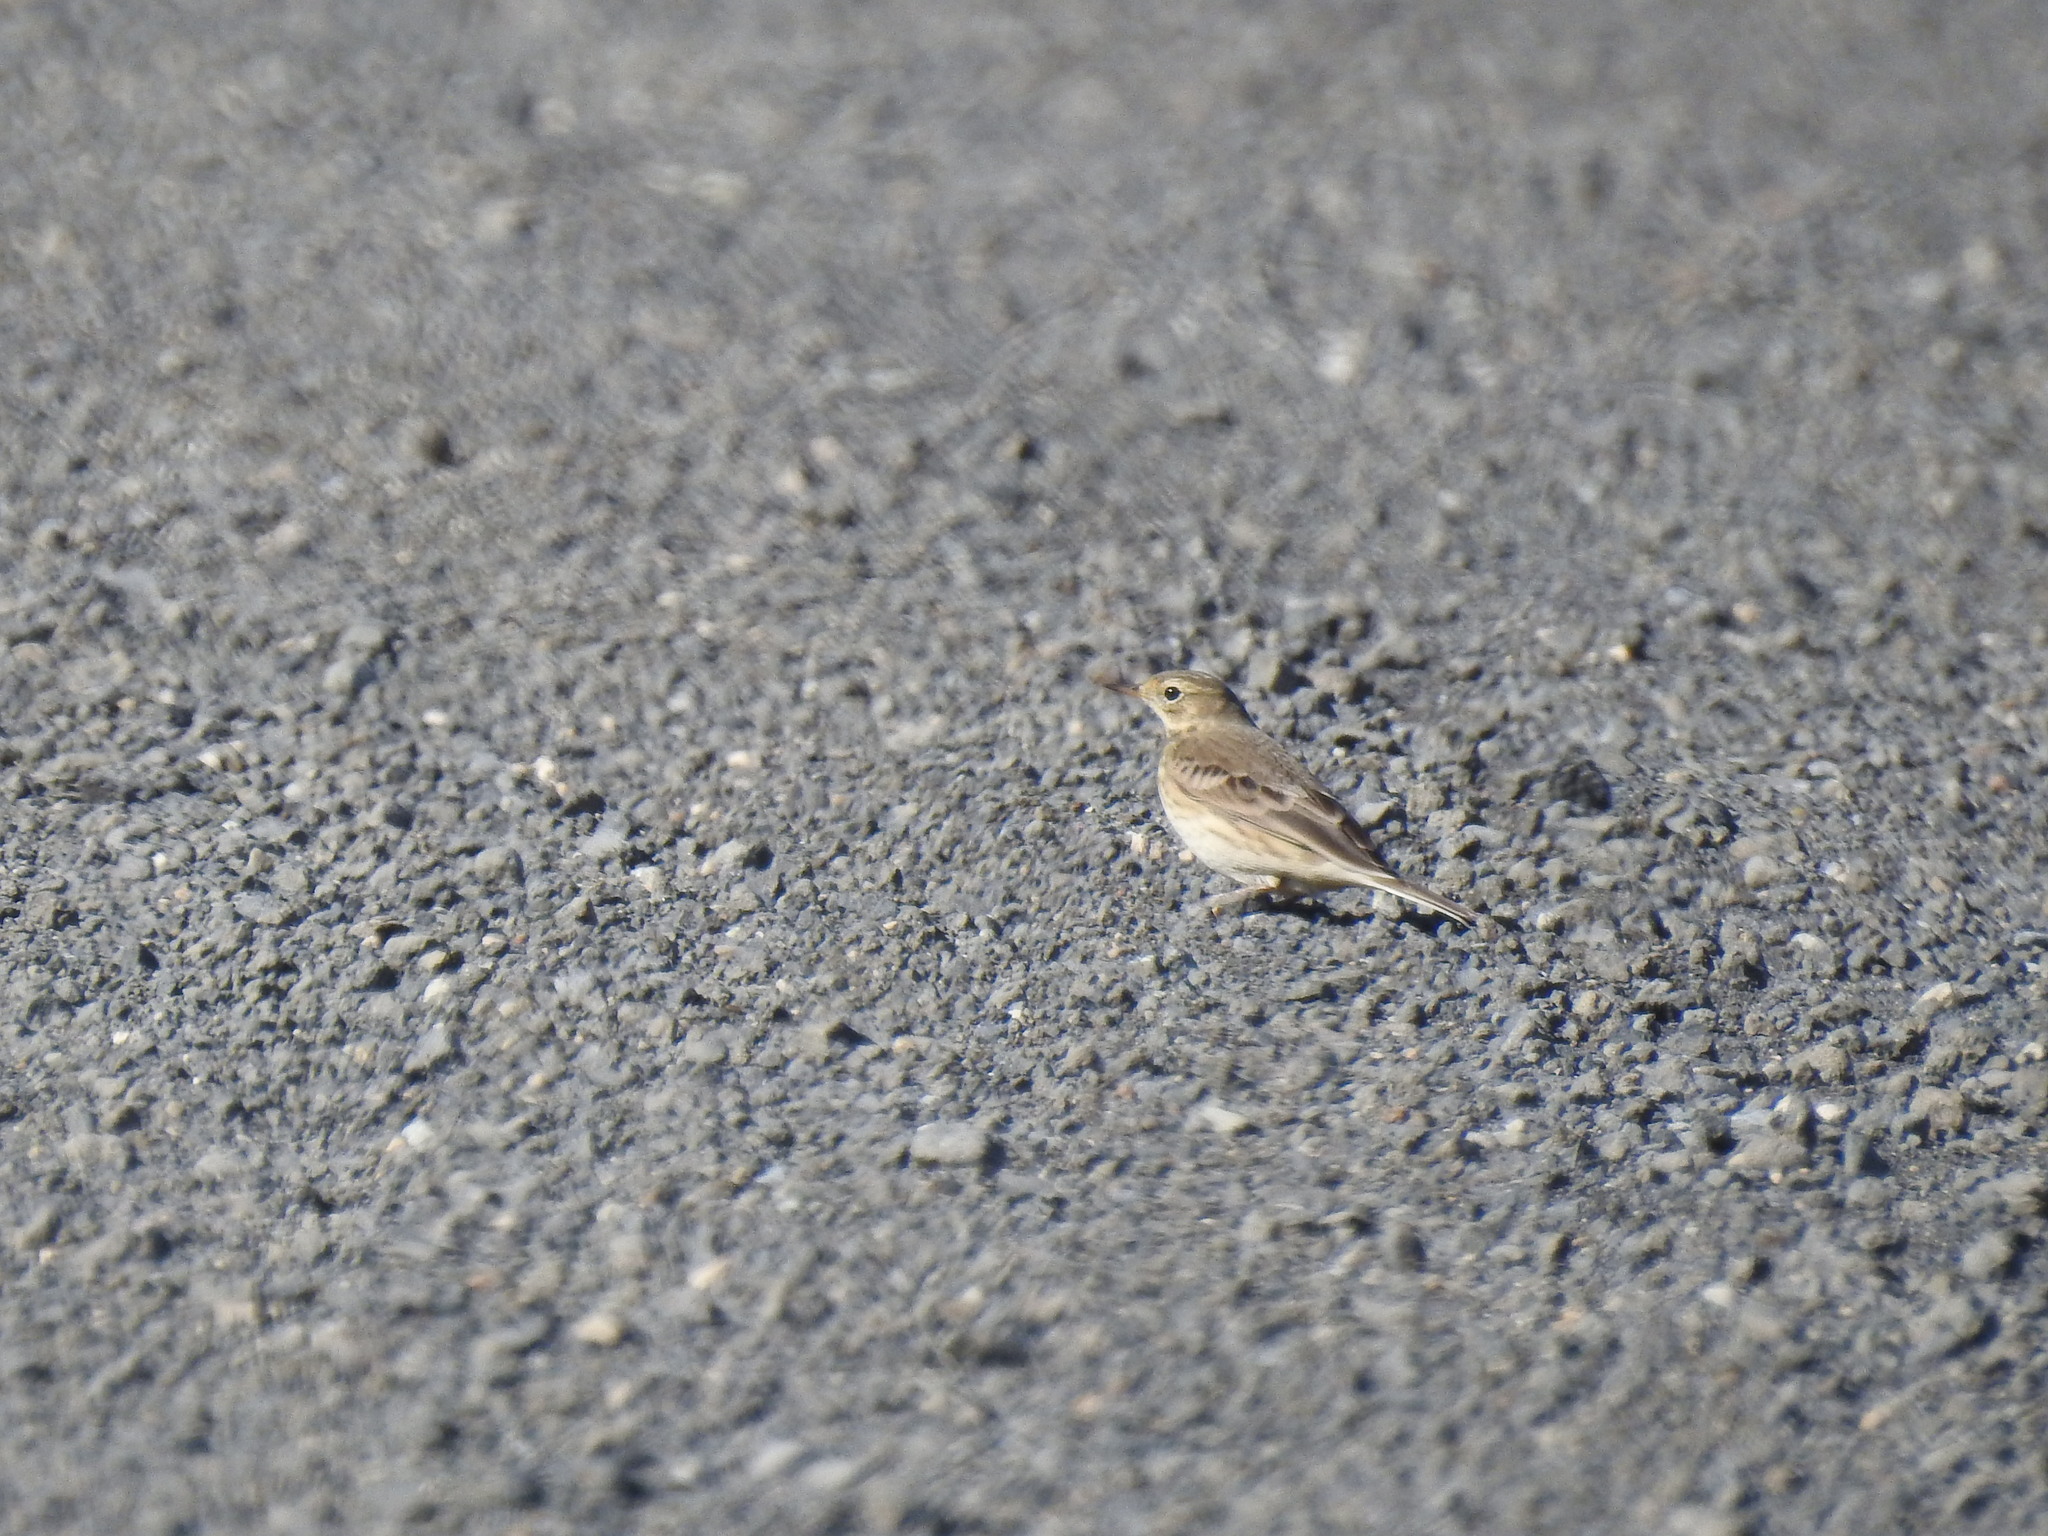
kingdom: Animalia
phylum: Chordata
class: Aves
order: Passeriformes
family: Motacillidae
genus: Anthus
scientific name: Anthus rubescens
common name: Buff-bellied pipit
